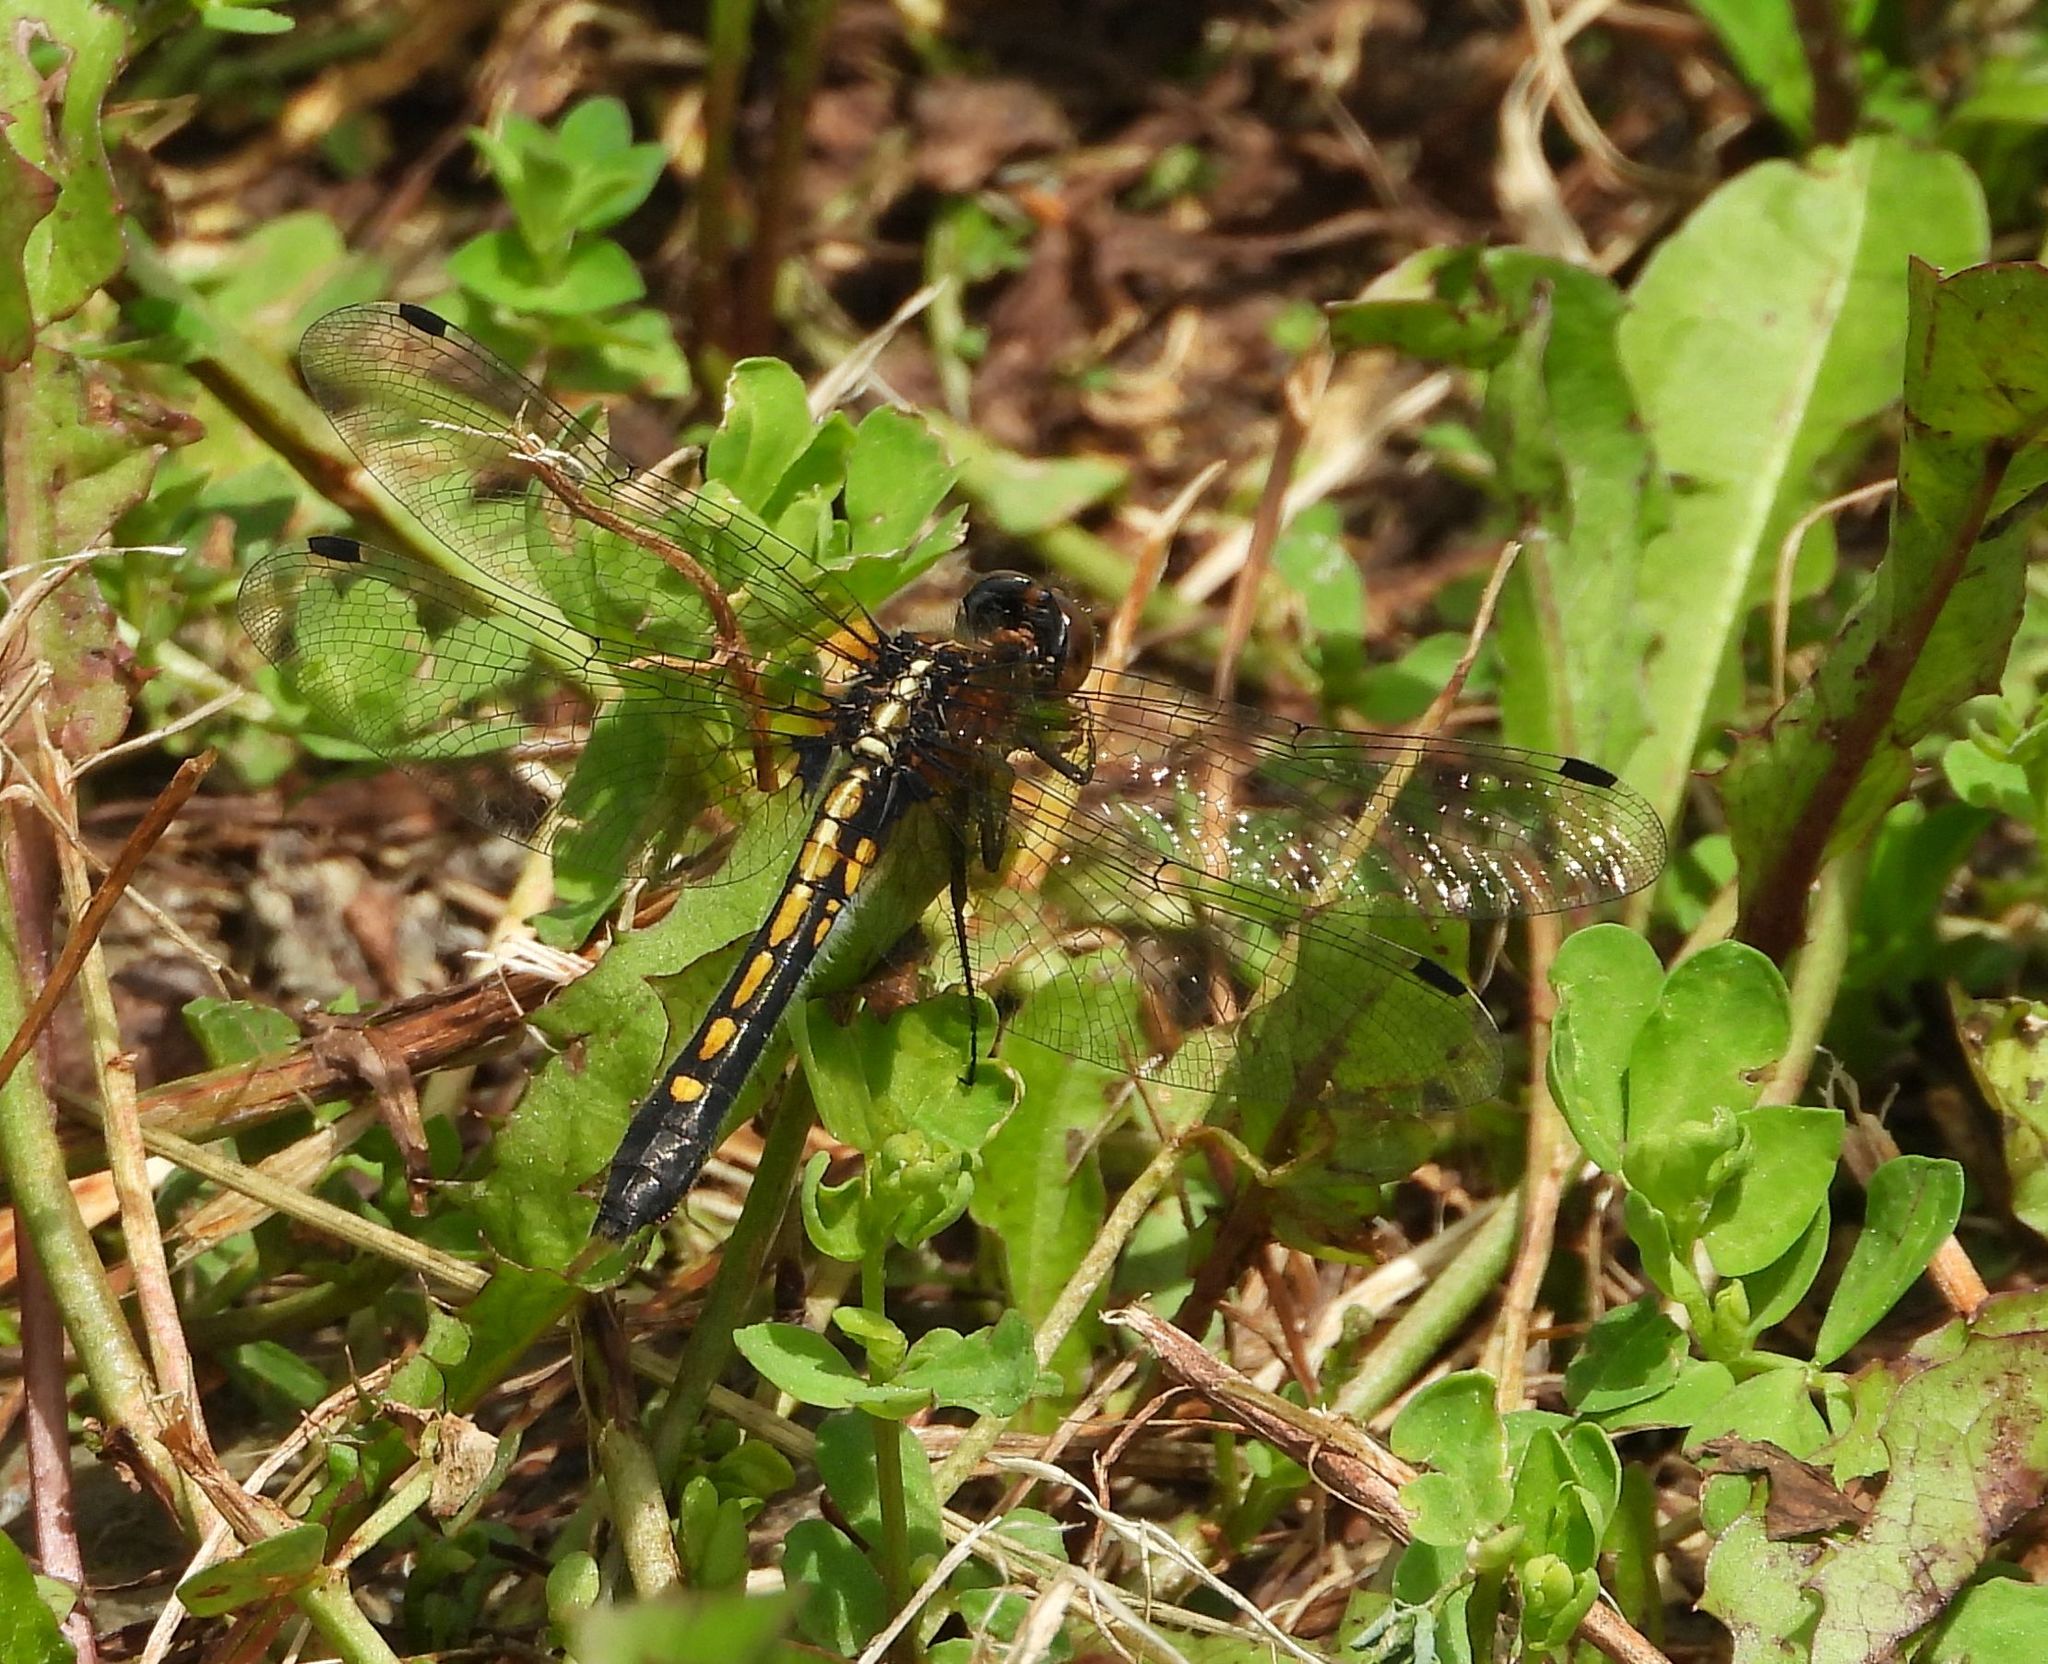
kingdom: Animalia
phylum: Arthropoda
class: Insecta
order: Odonata
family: Libellulidae
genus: Leucorrhinia
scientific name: Leucorrhinia intacta
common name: Dot-tailed whiteface
